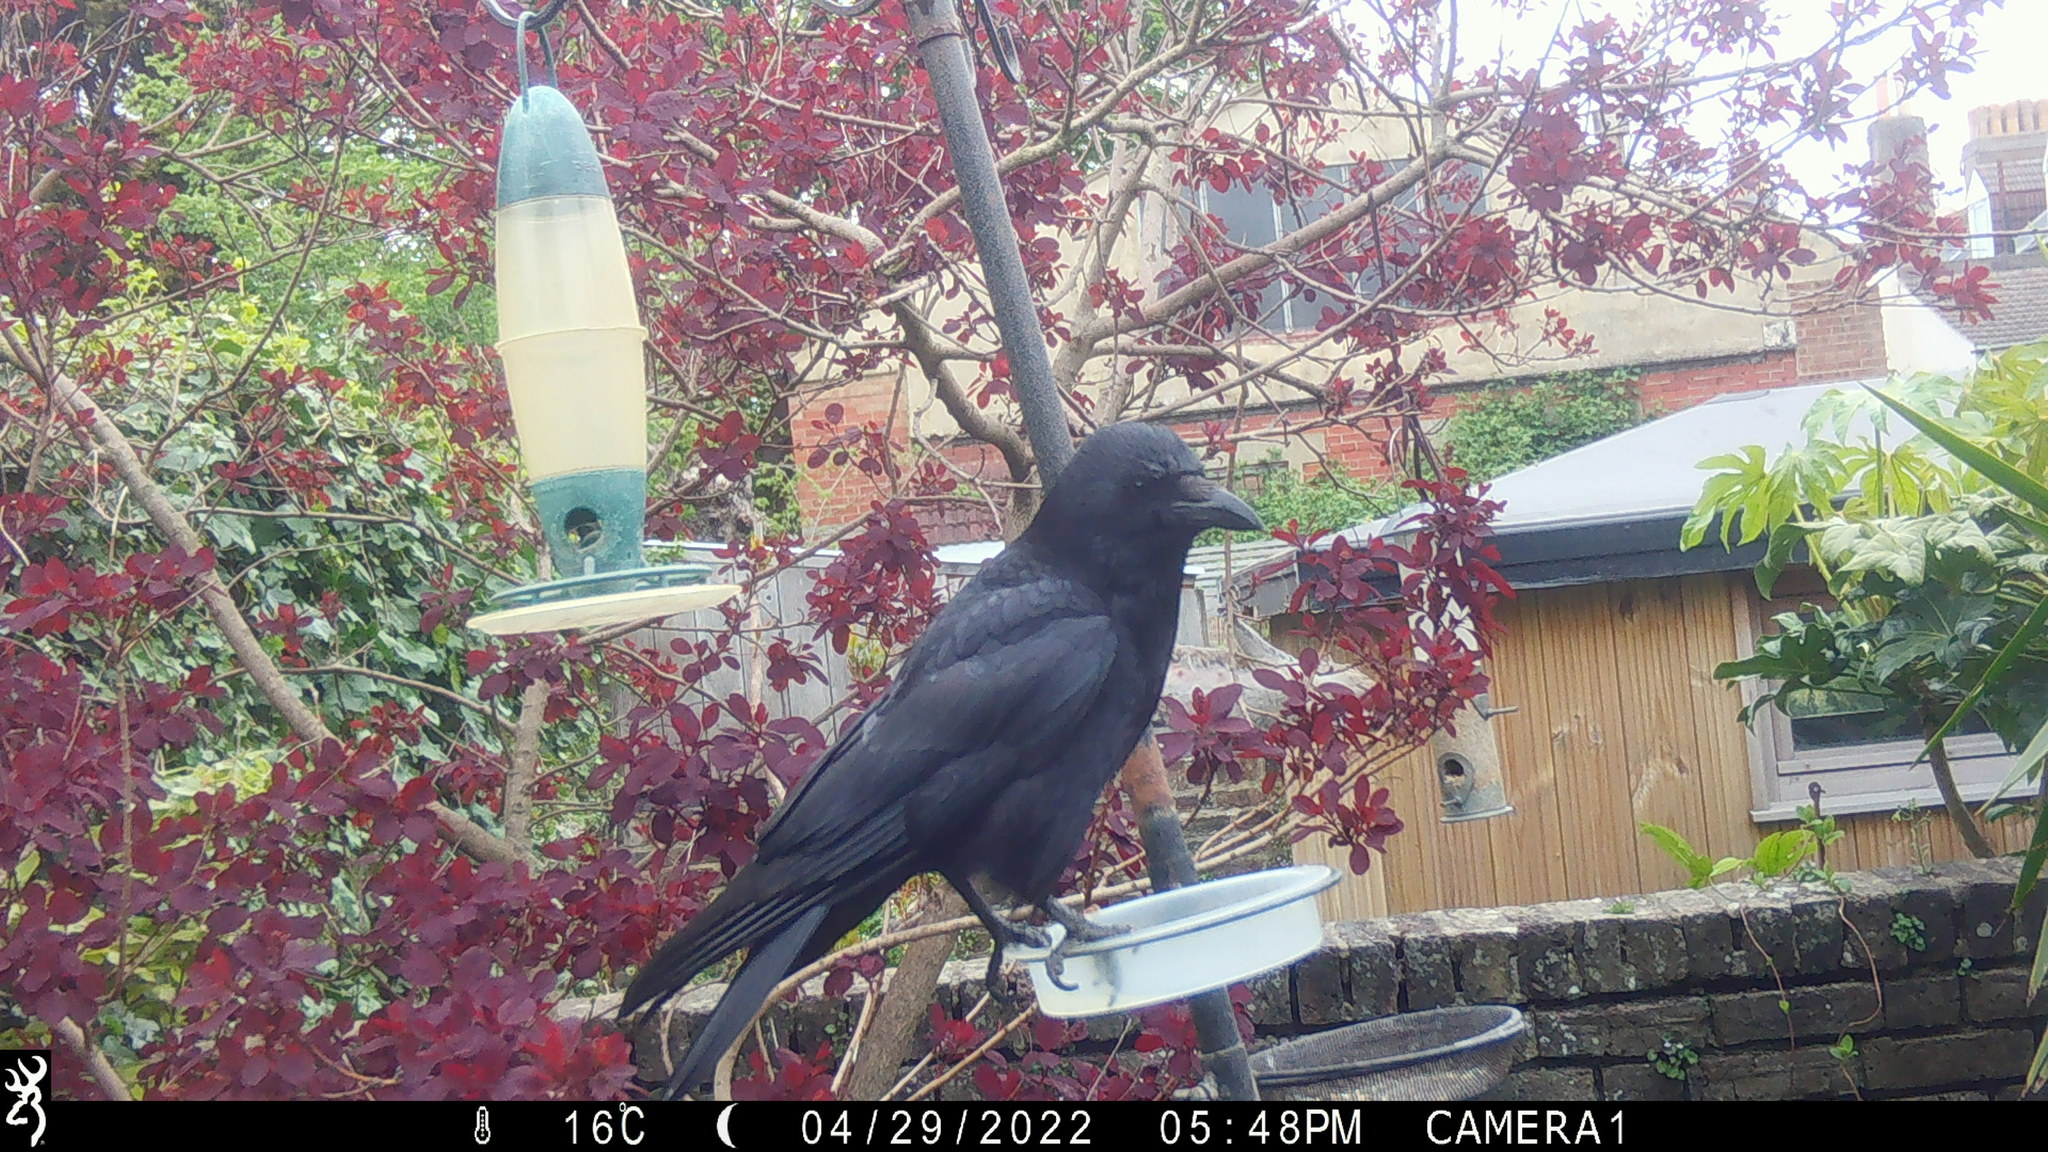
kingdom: Animalia
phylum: Chordata
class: Aves
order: Passeriformes
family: Corvidae
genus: Corvus
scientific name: Corvus corone
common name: Carrion crow
